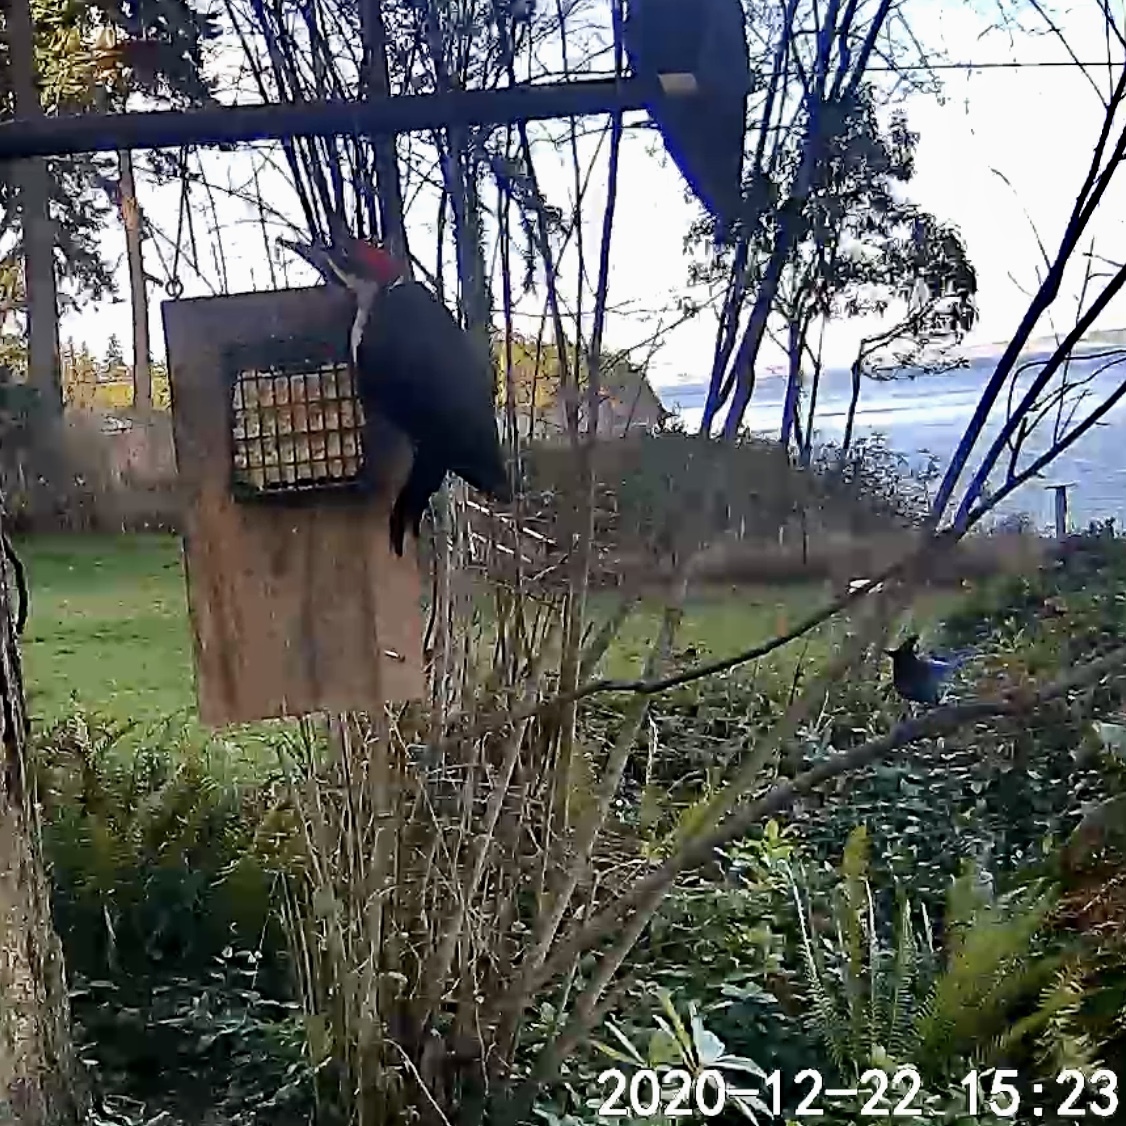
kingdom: Animalia
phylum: Chordata
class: Aves
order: Piciformes
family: Picidae
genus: Dryocopus
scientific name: Dryocopus pileatus
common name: Pileated woodpecker
